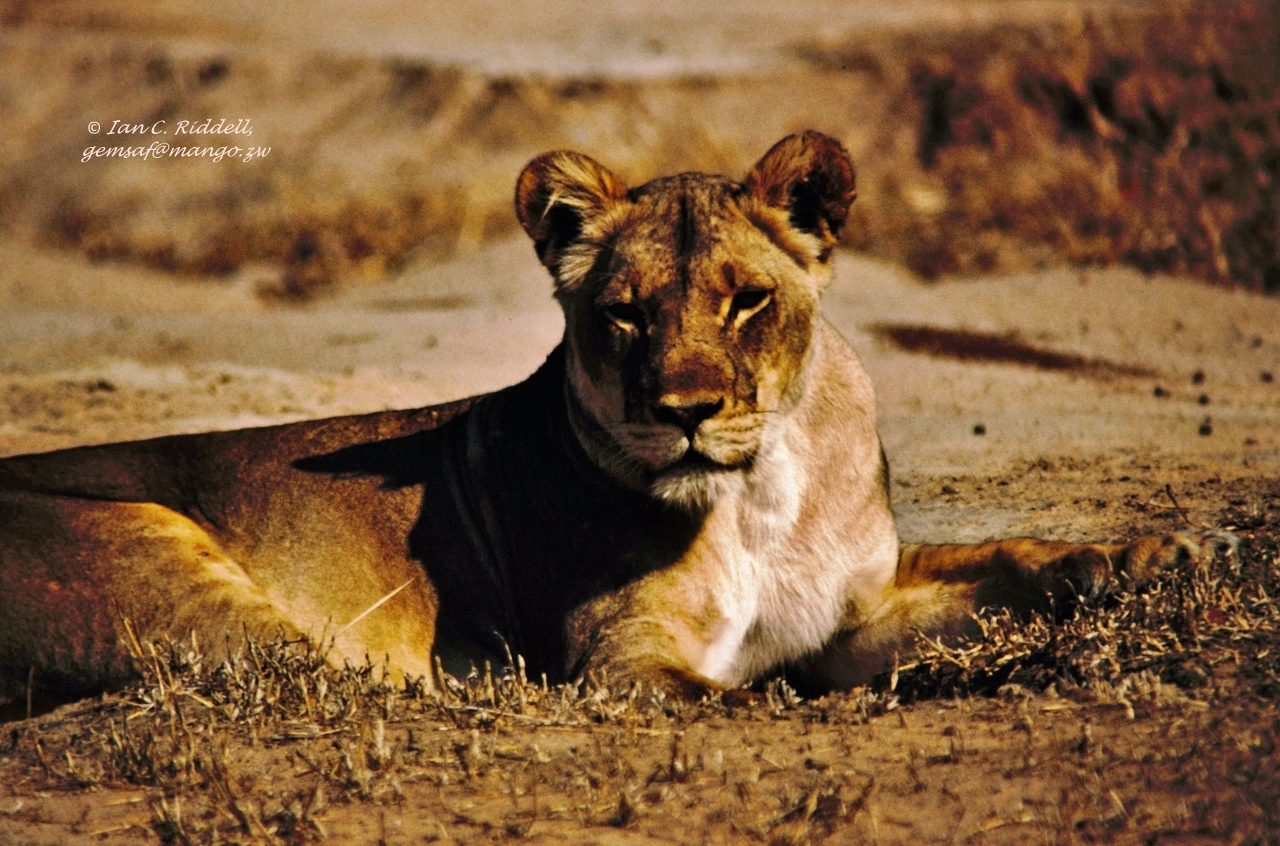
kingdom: Animalia
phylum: Chordata
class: Mammalia
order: Carnivora
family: Felidae
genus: Panthera
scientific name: Panthera leo
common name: Lion
